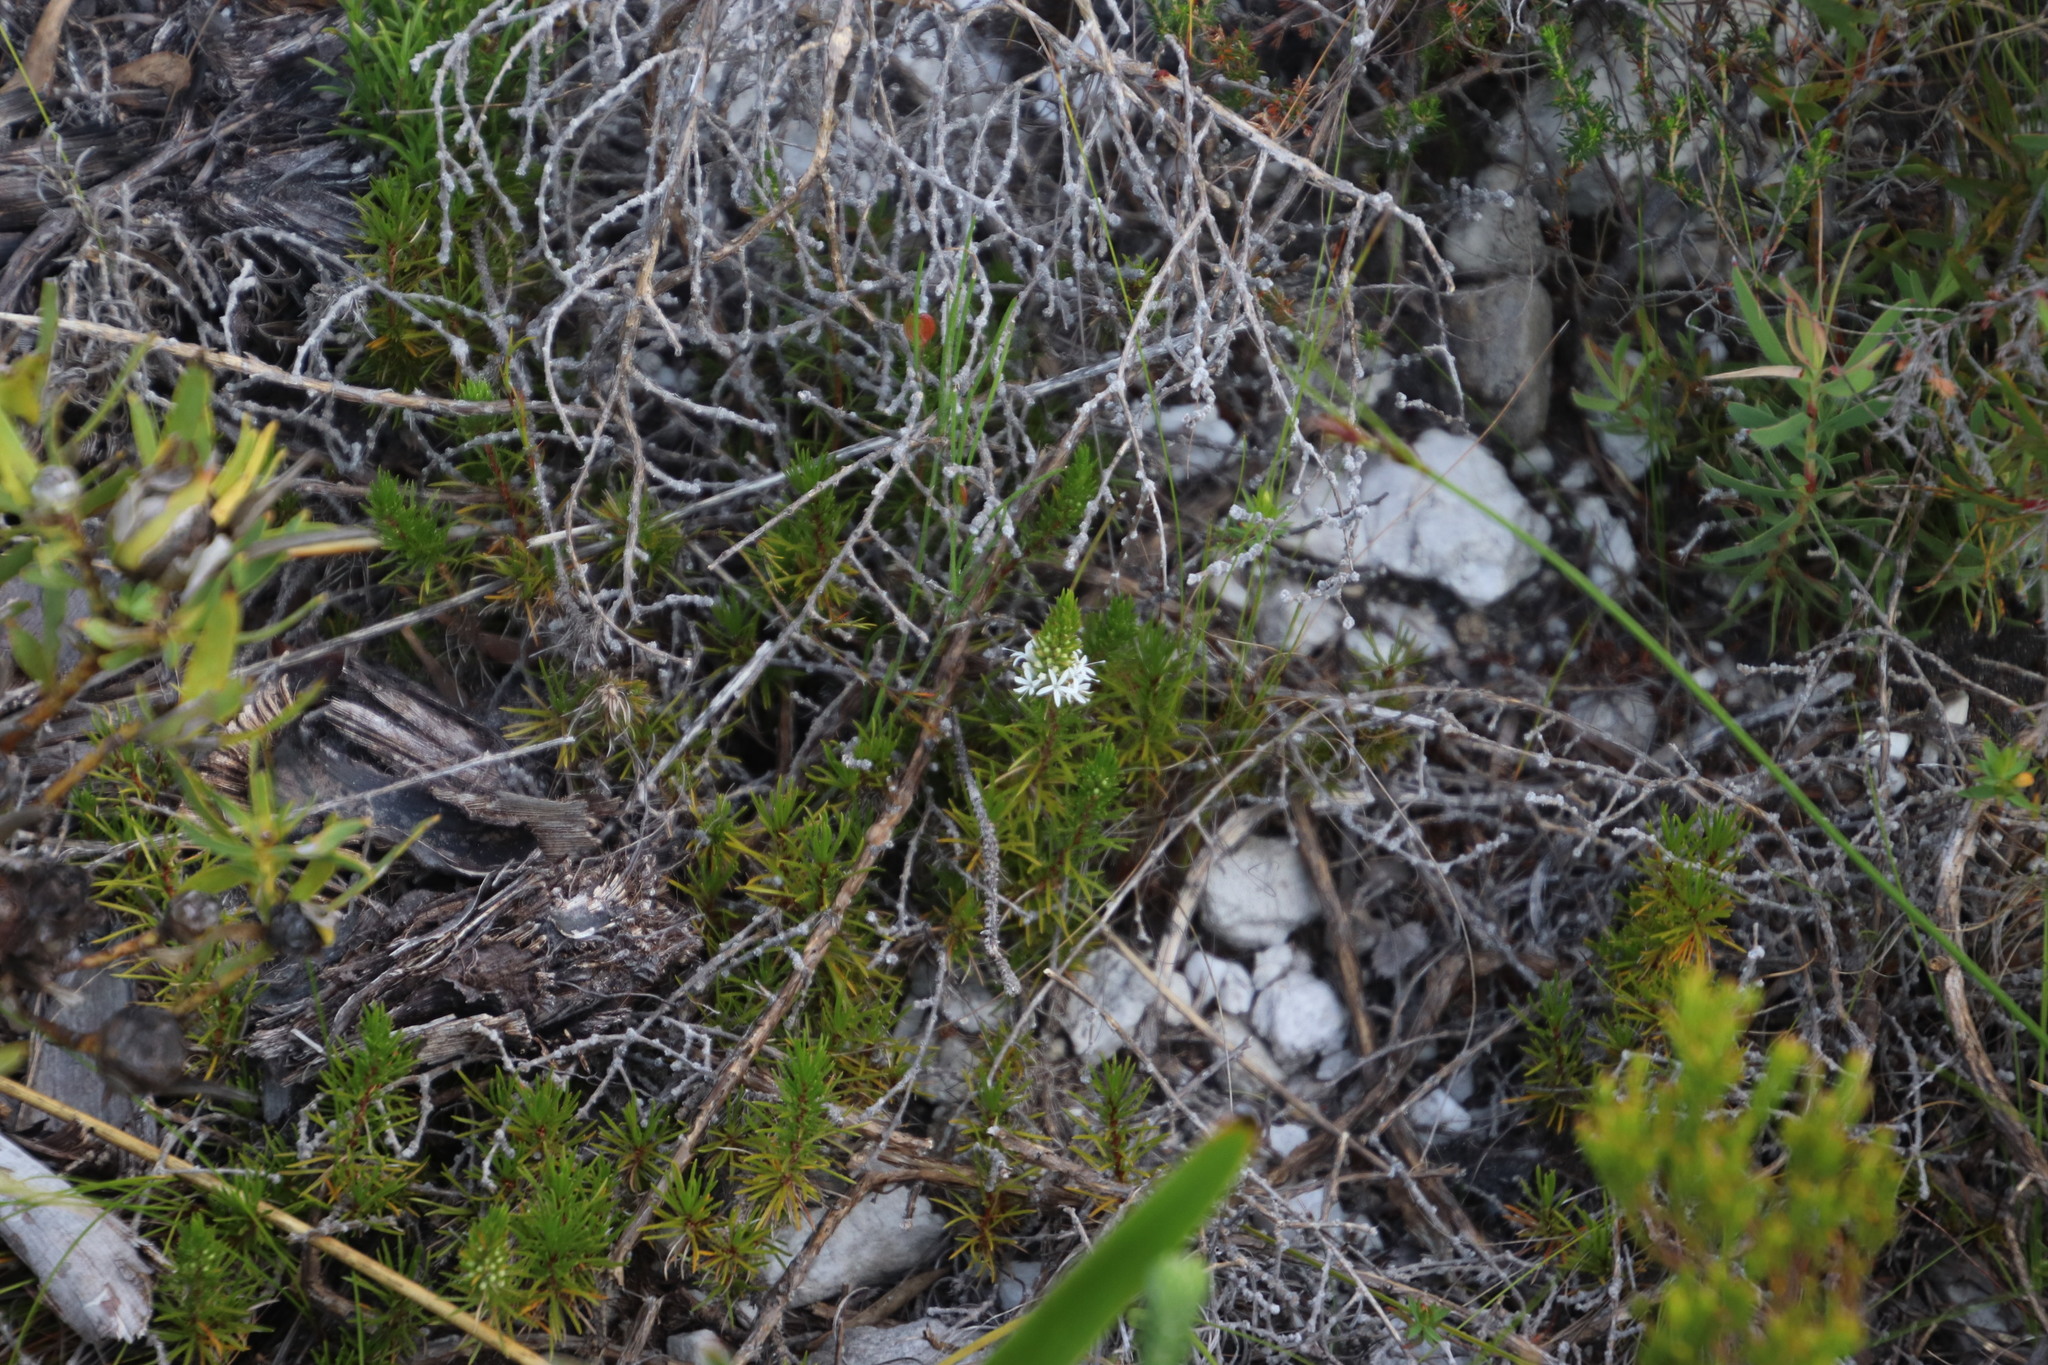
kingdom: Plantae
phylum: Tracheophyta
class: Magnoliopsida
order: Asterales
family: Campanulaceae
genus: Merciera
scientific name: Merciera leptoloba
